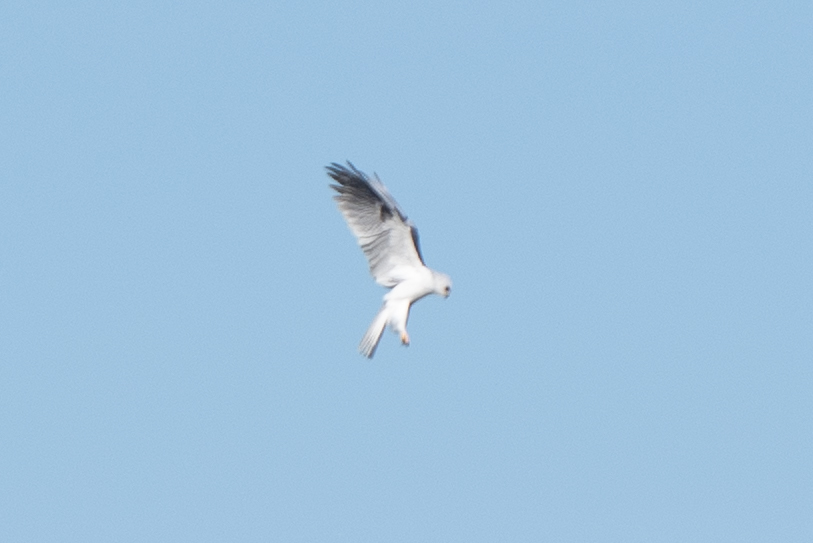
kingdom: Animalia
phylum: Chordata
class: Aves
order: Accipitriformes
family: Accipitridae
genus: Elanus
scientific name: Elanus leucurus
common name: White-tailed kite
